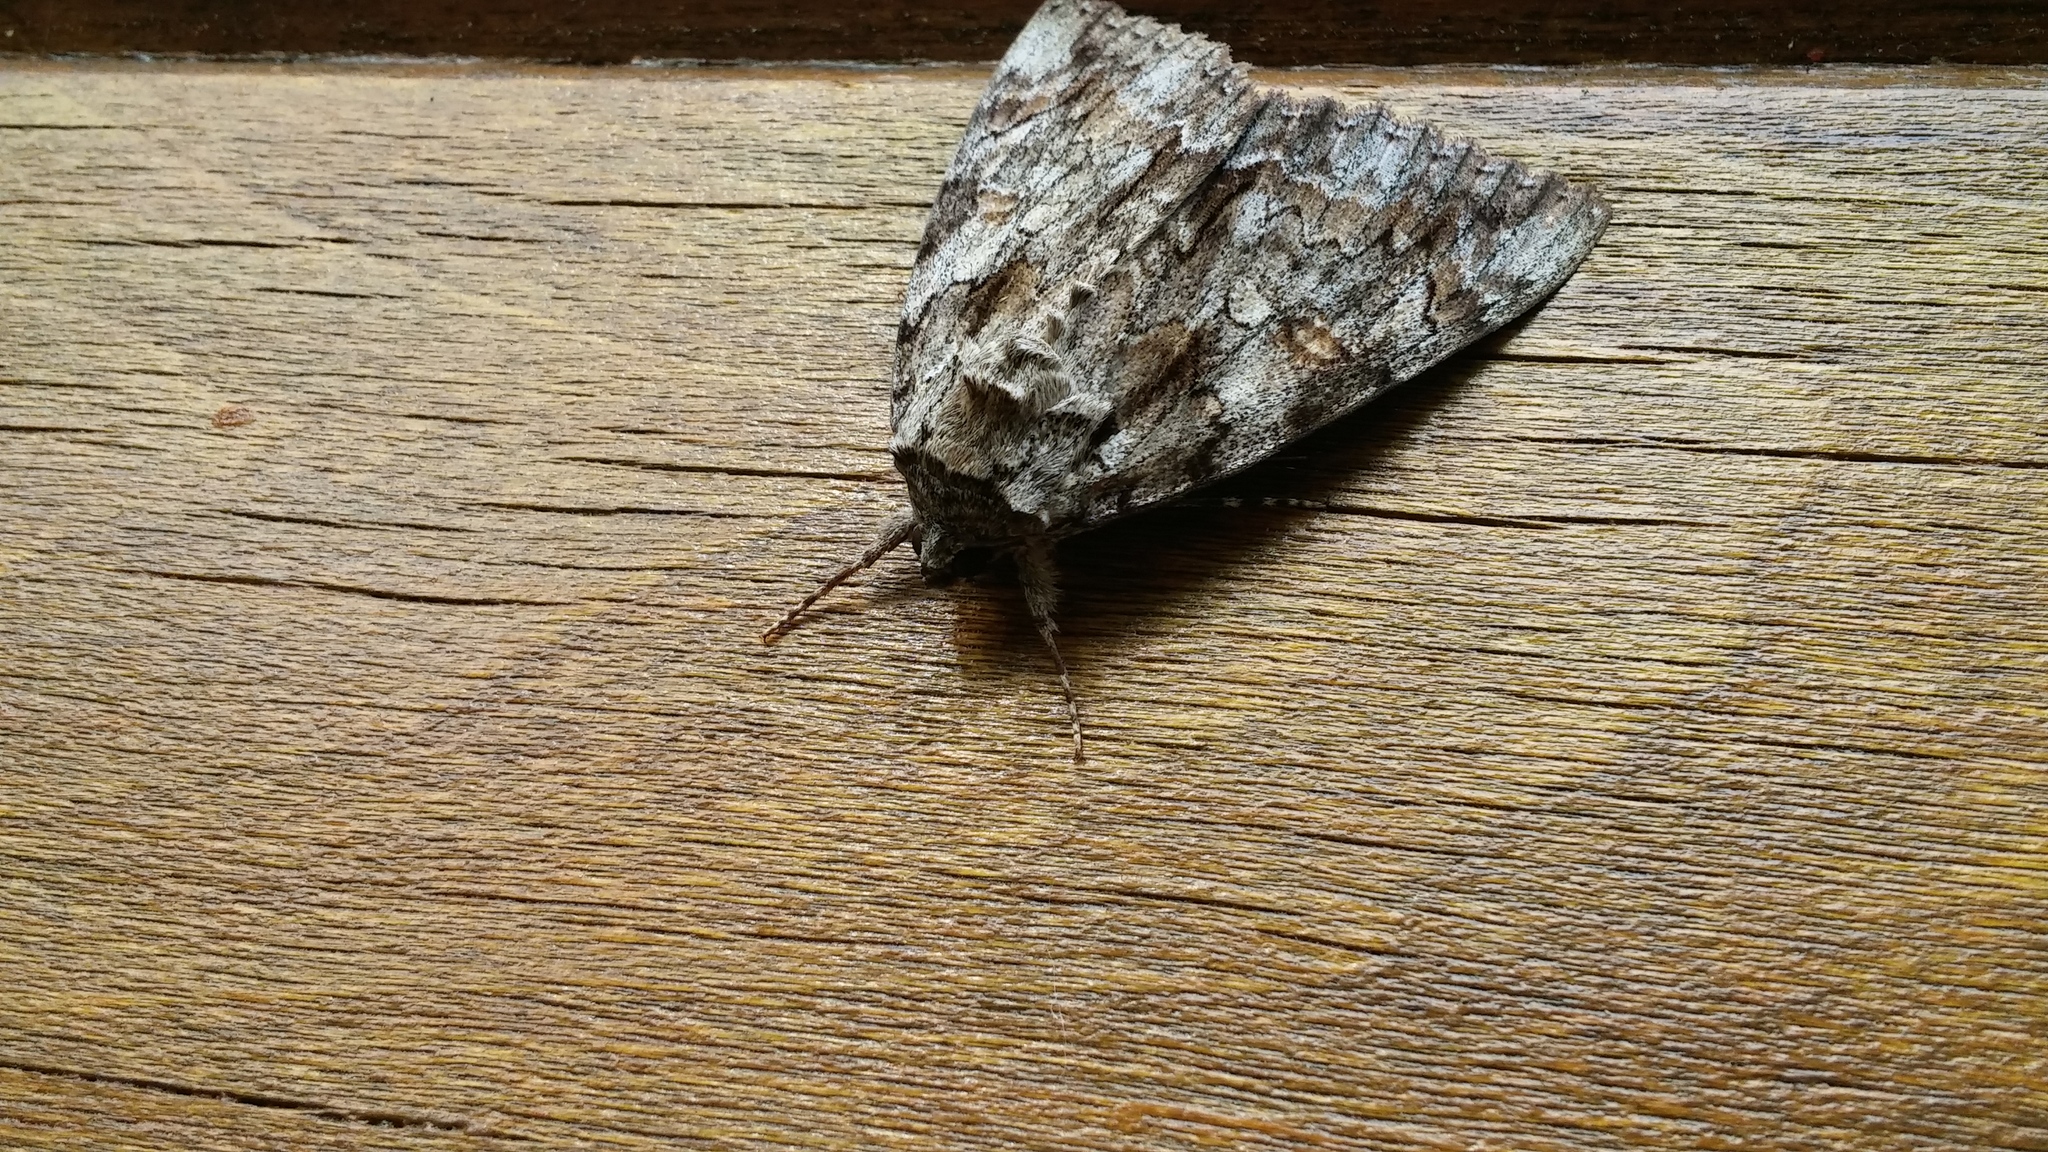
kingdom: Animalia
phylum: Arthropoda
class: Insecta
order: Lepidoptera
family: Erebidae
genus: Catocala
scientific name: Catocala neogama
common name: Bride underwing
